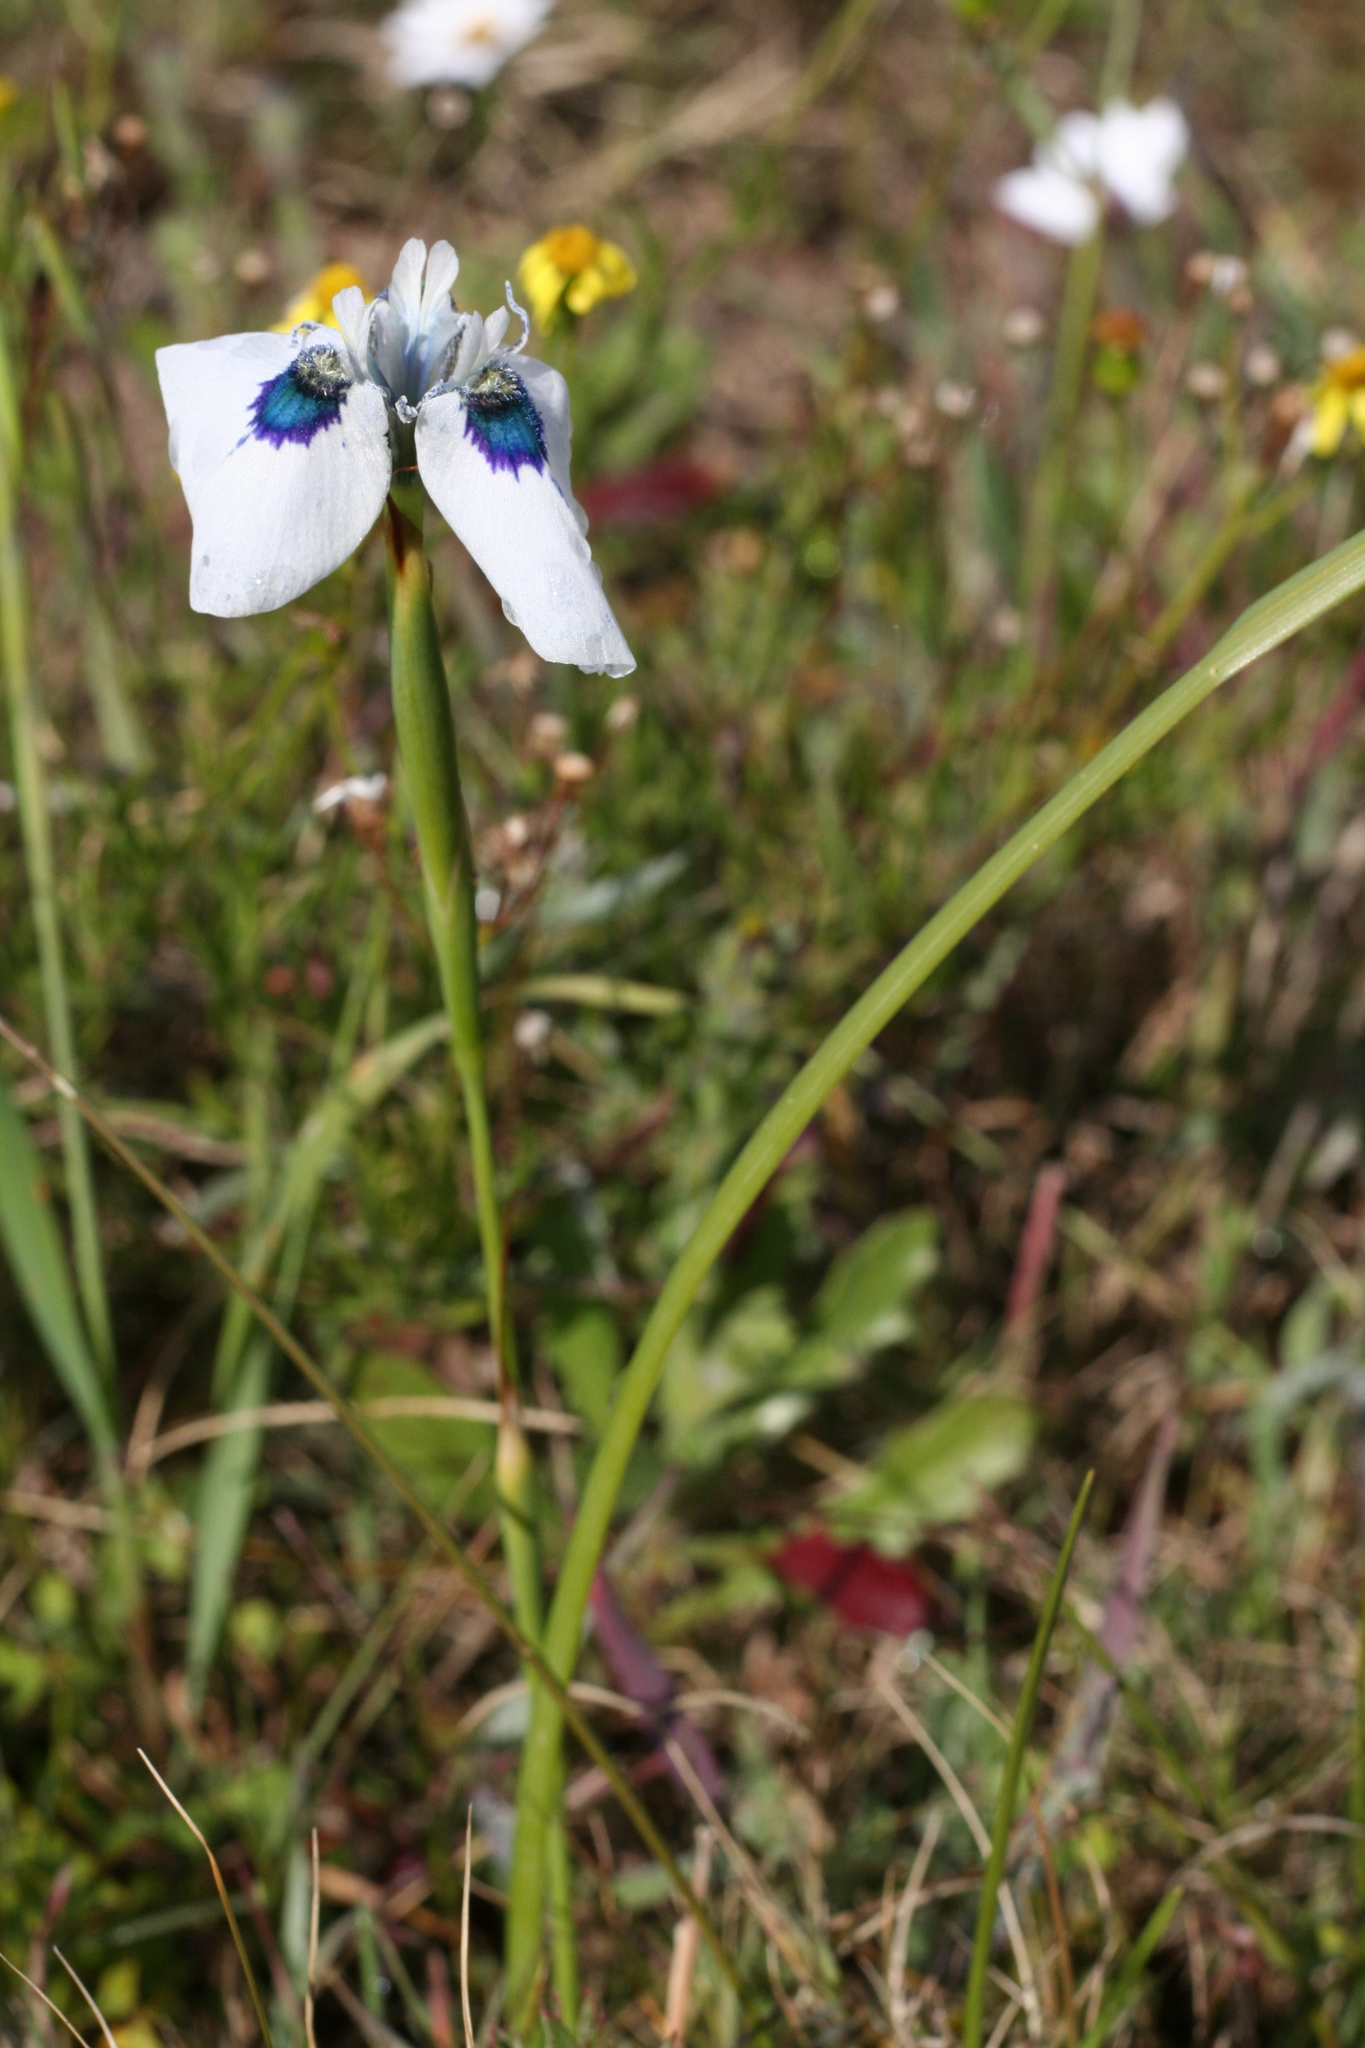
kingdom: Plantae
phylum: Tracheophyta
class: Liliopsida
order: Asparagales
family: Iridaceae
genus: Moraea
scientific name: Moraea aristata
